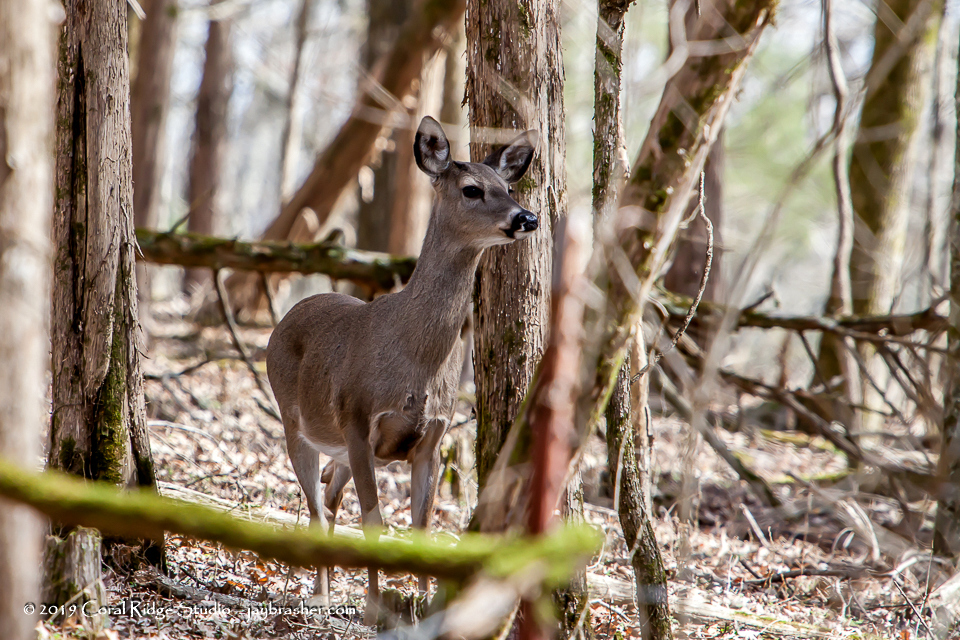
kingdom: Animalia
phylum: Chordata
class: Mammalia
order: Artiodactyla
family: Cervidae
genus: Odocoileus
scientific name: Odocoileus virginianus
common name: White-tailed deer
